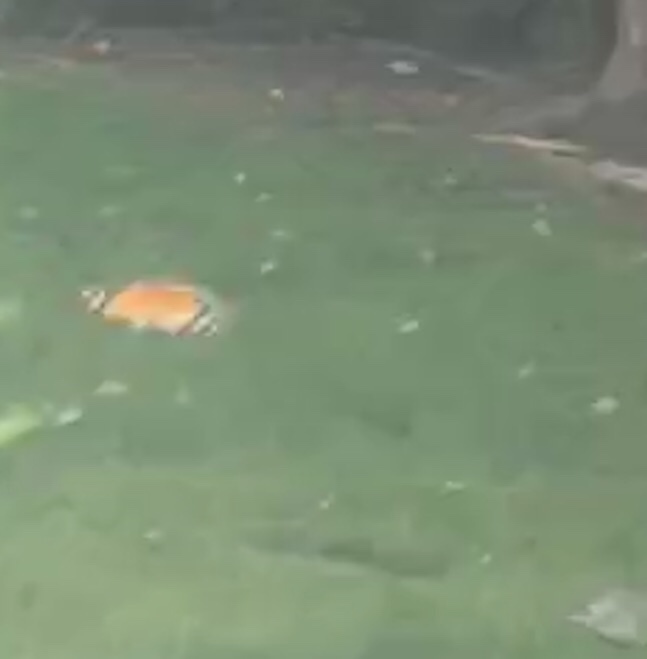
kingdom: Animalia
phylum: Arthropoda
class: Insecta
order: Lepidoptera
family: Nymphalidae
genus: Vanessa
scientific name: Vanessa itea
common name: Yellow admiral
